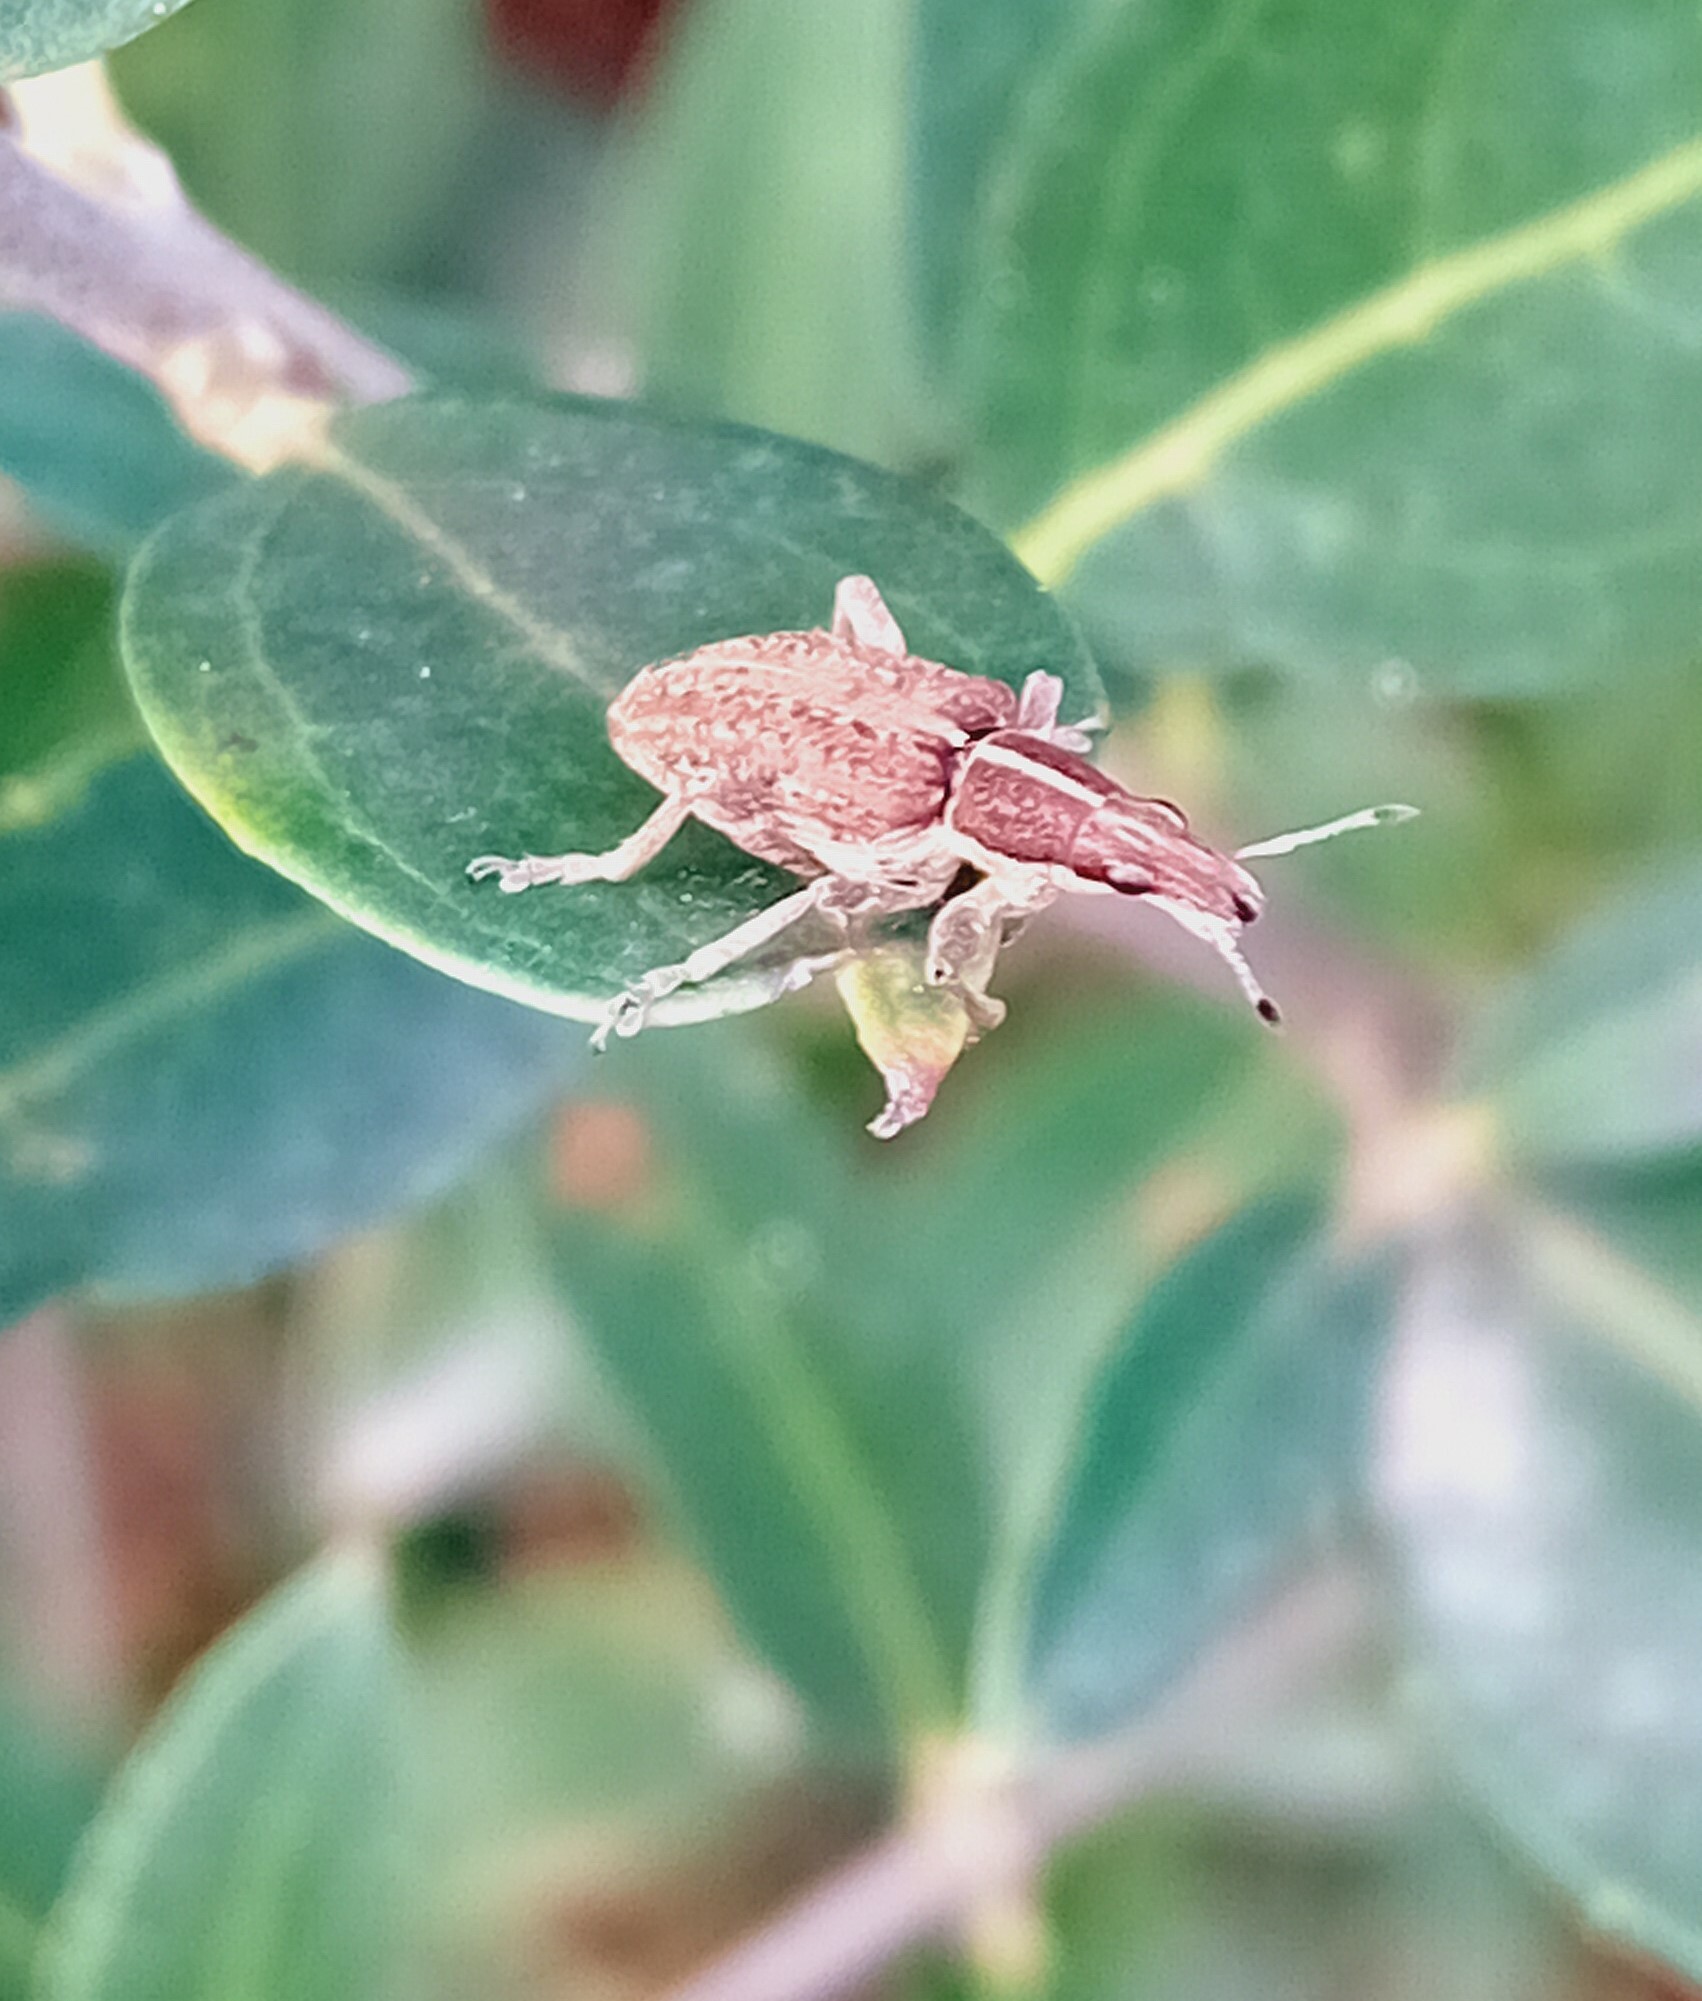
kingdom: Animalia
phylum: Arthropoda
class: Insecta
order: Coleoptera
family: Curculionidae
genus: Charagmus
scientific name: Charagmus gressorius
